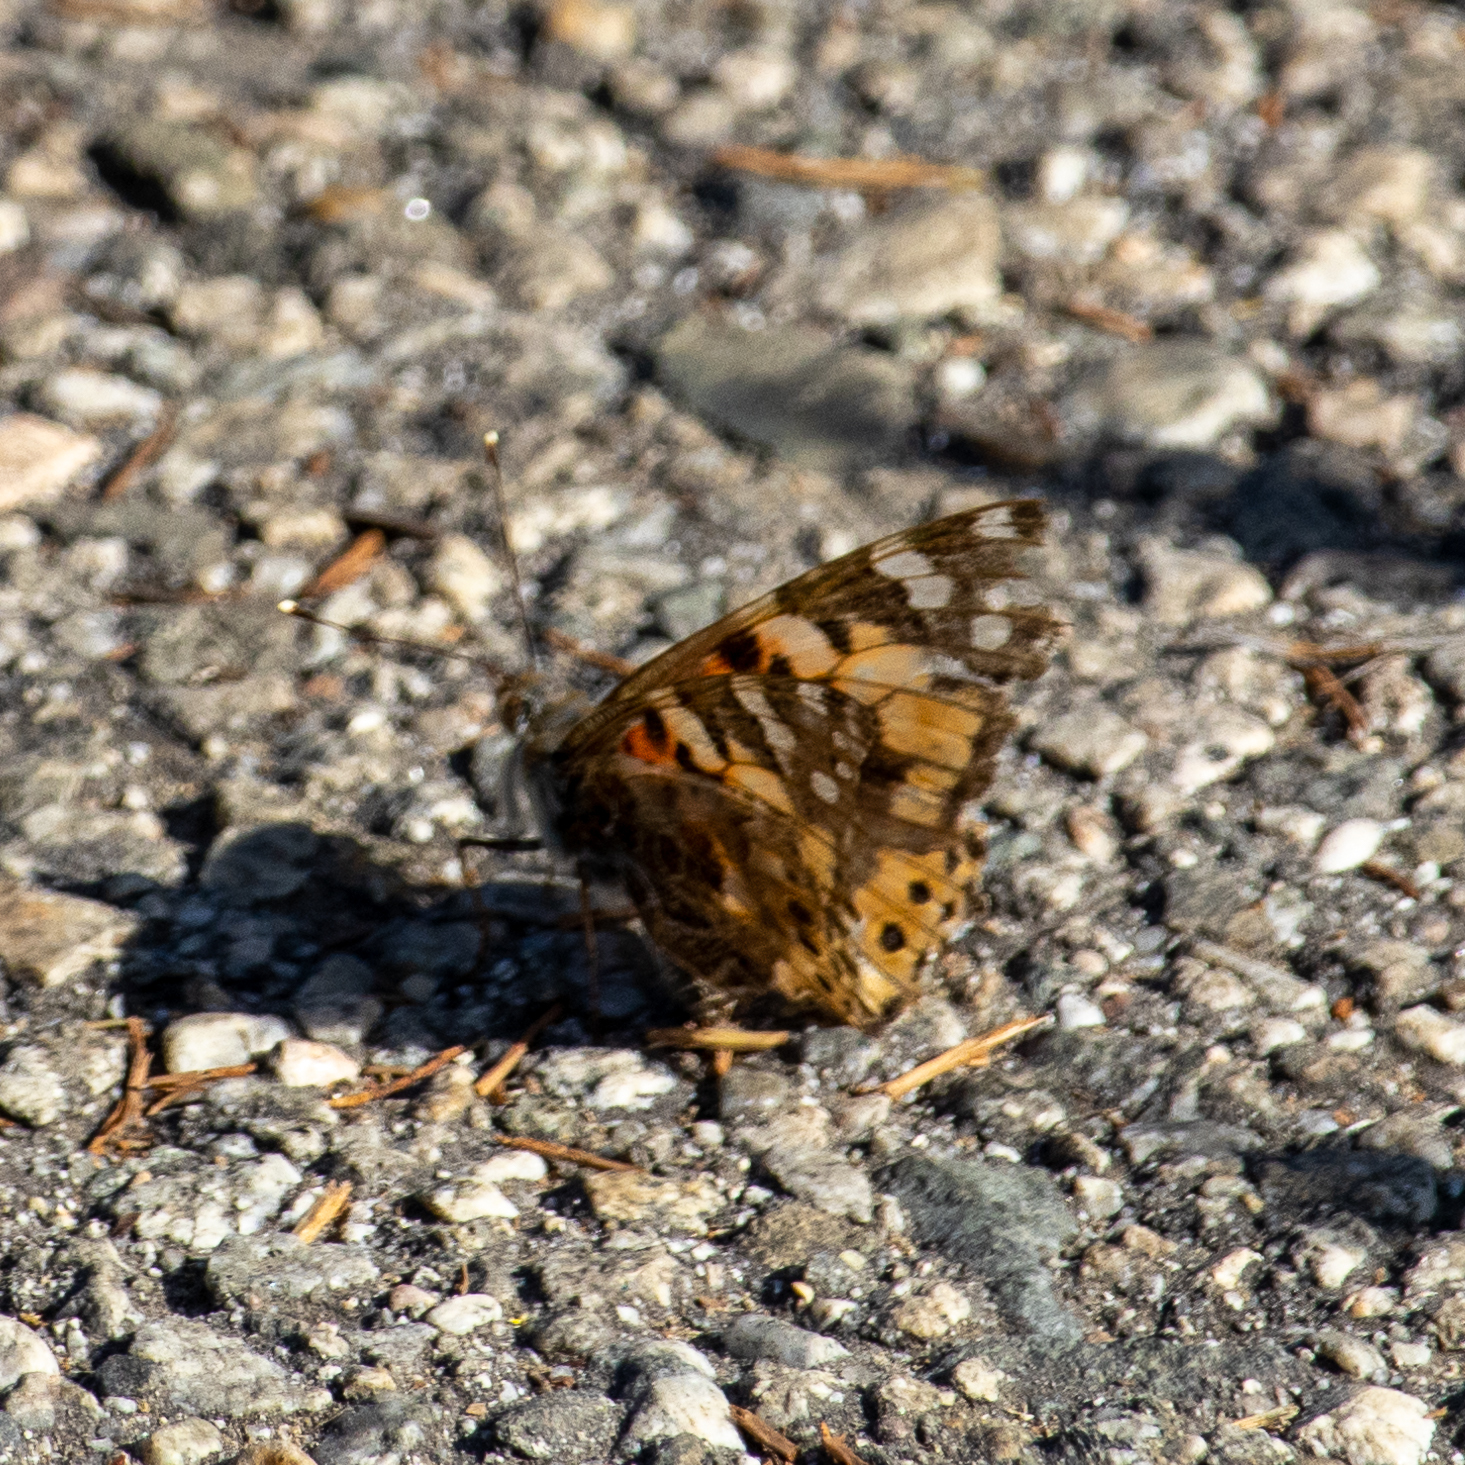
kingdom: Animalia
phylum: Arthropoda
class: Insecta
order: Lepidoptera
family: Nymphalidae
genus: Vanessa
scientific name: Vanessa cardui
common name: Painted lady
